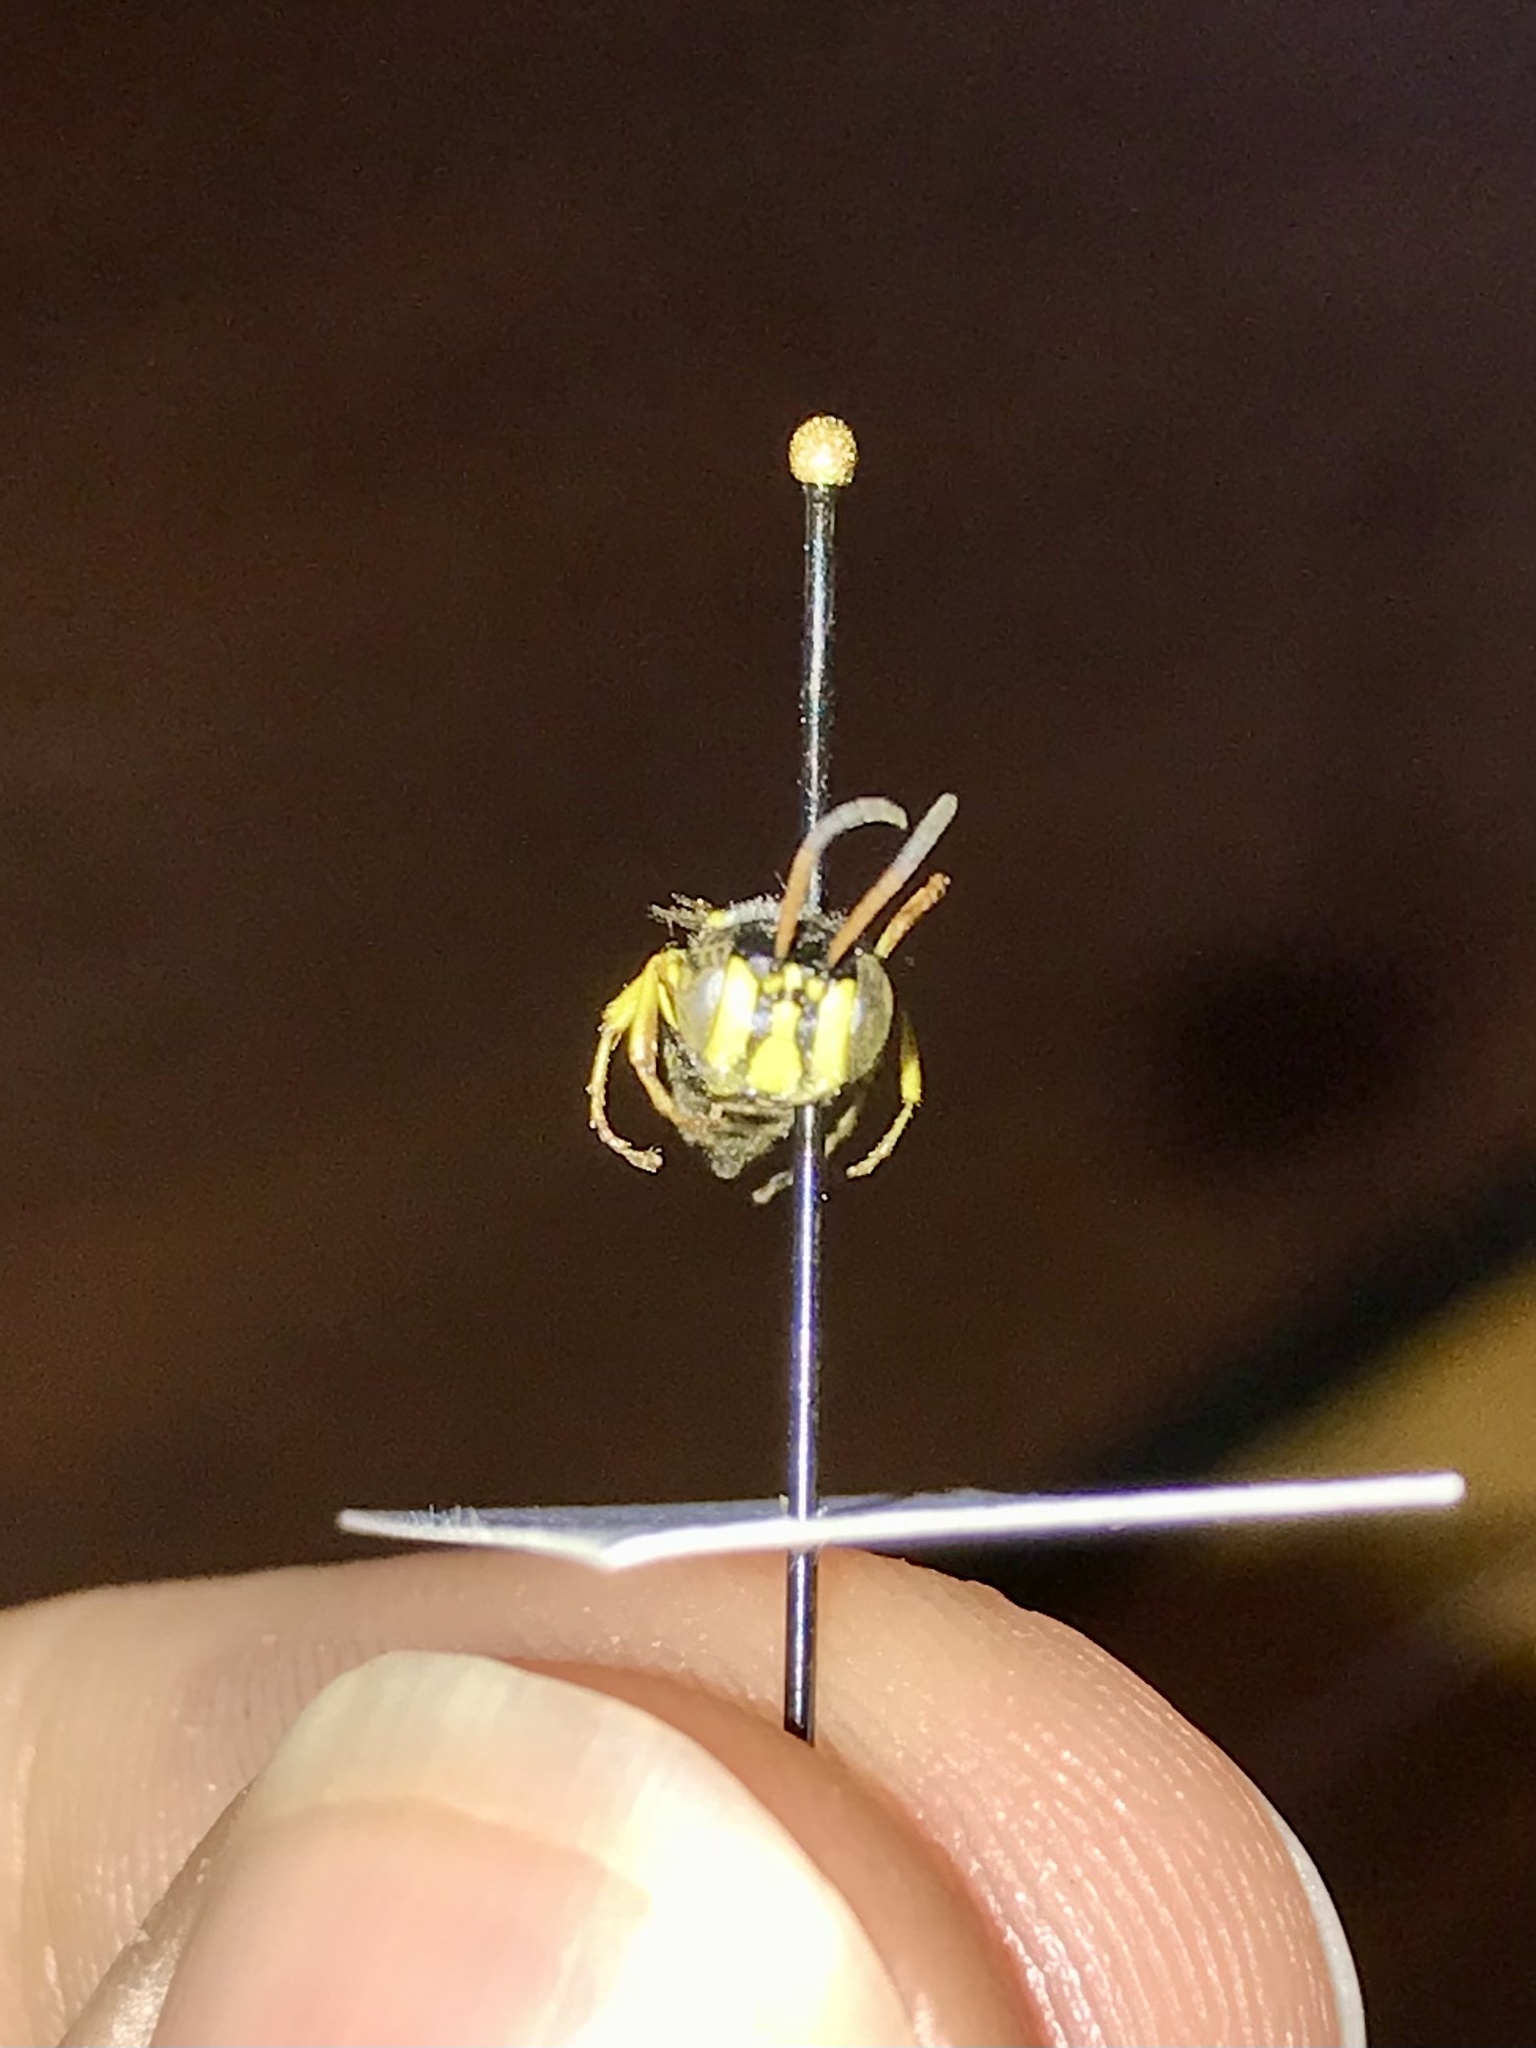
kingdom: Animalia
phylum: Arthropoda
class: Insecta
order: Hymenoptera
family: Crabronidae
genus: Aphilanthops
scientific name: Aphilanthops frigidus
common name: Queen ant kidnapper
